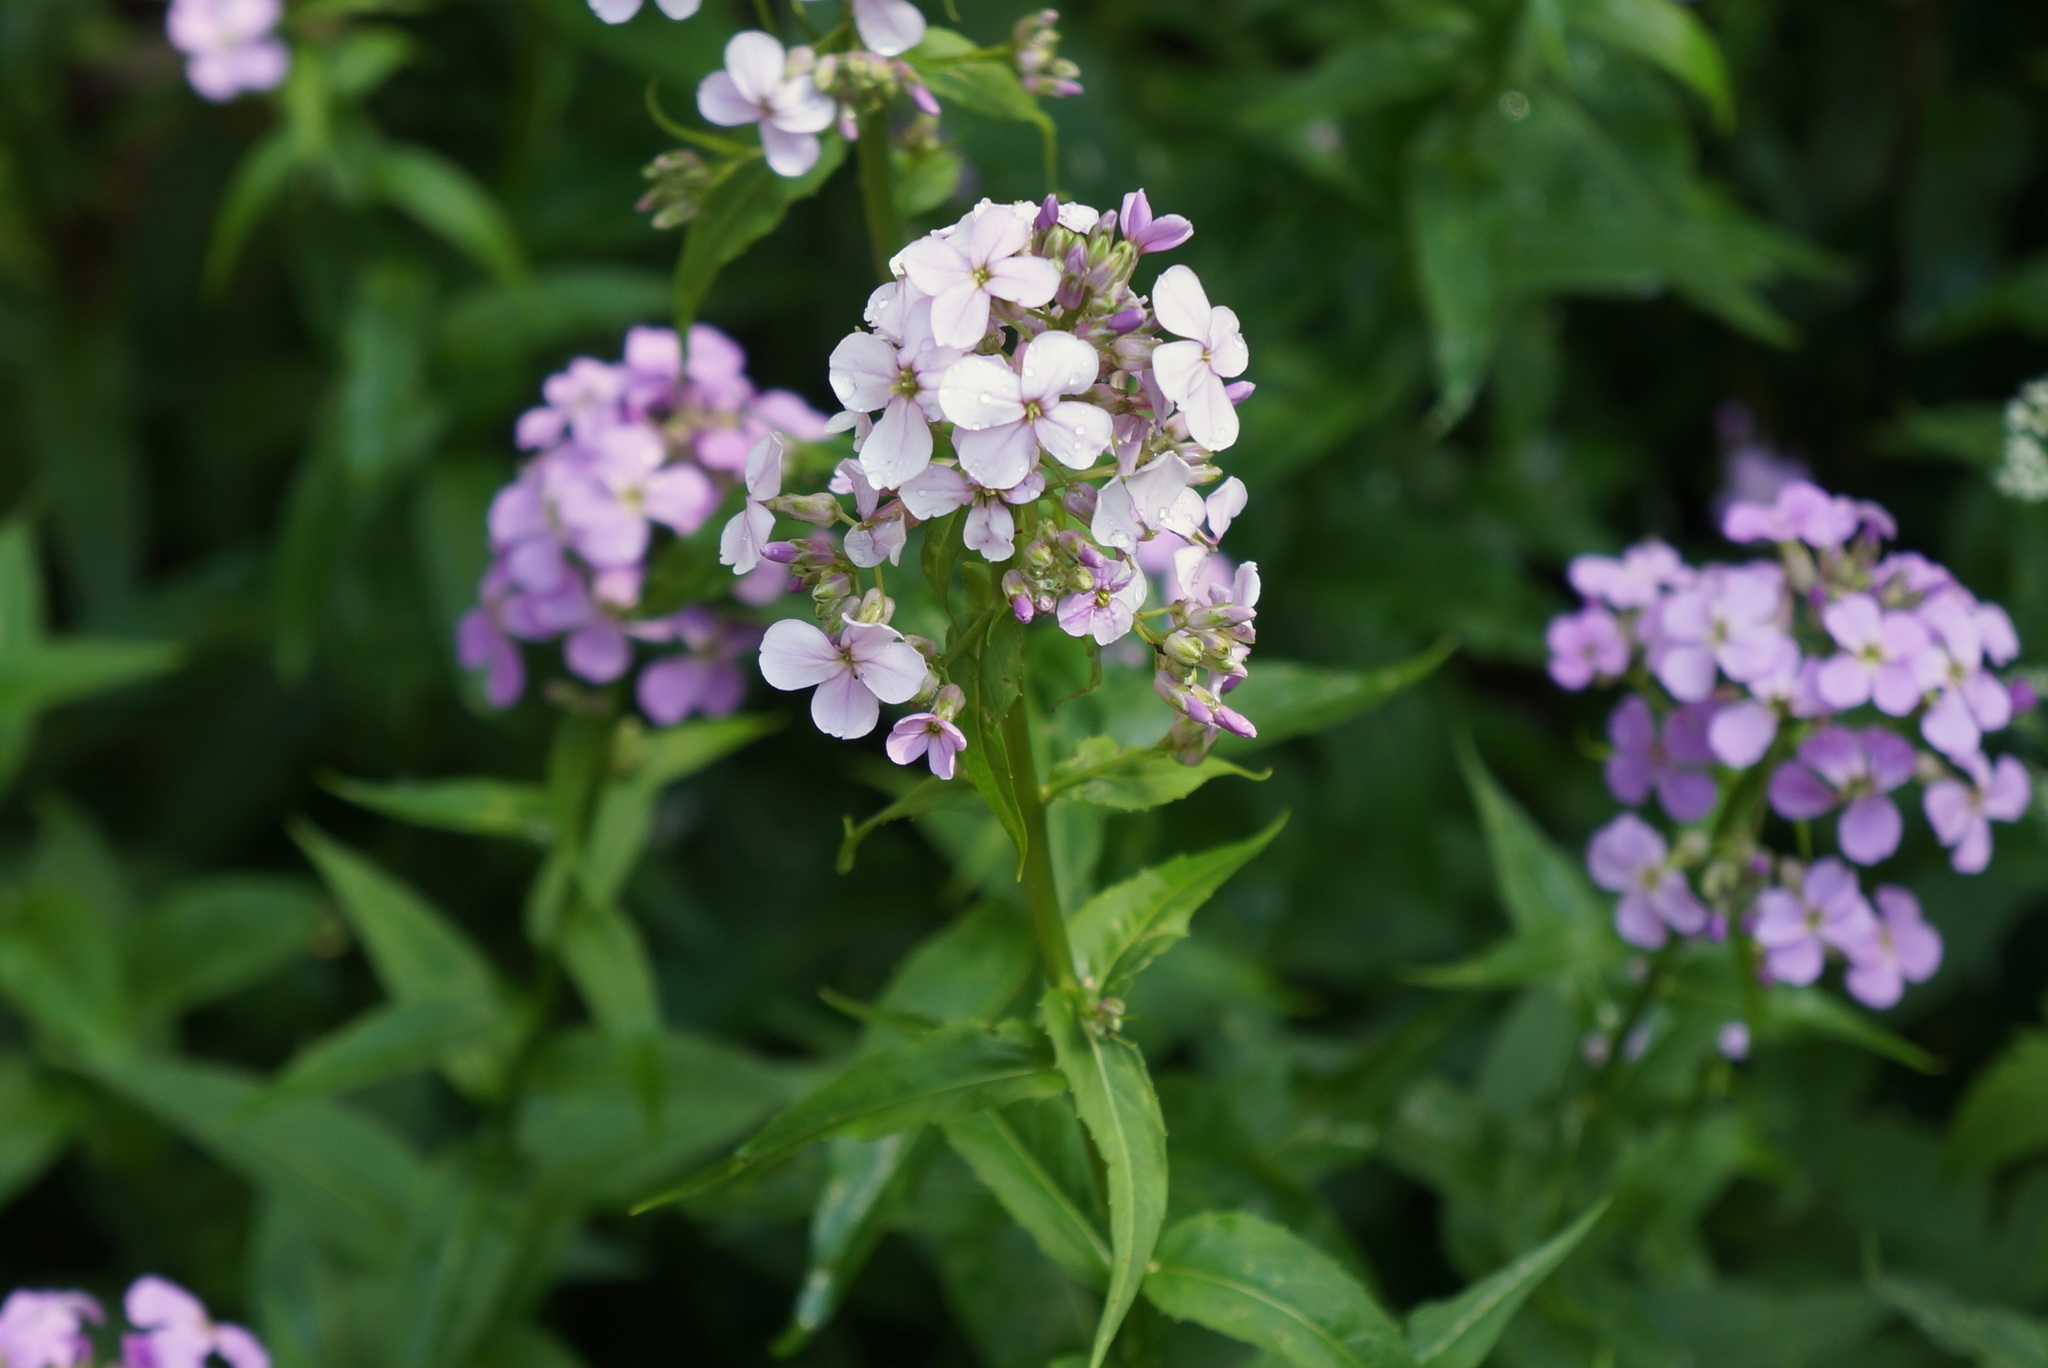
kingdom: Plantae
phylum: Tracheophyta
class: Magnoliopsida
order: Brassicales
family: Brassicaceae
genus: Hesperis
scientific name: Hesperis matronalis
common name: Dame's-violet
